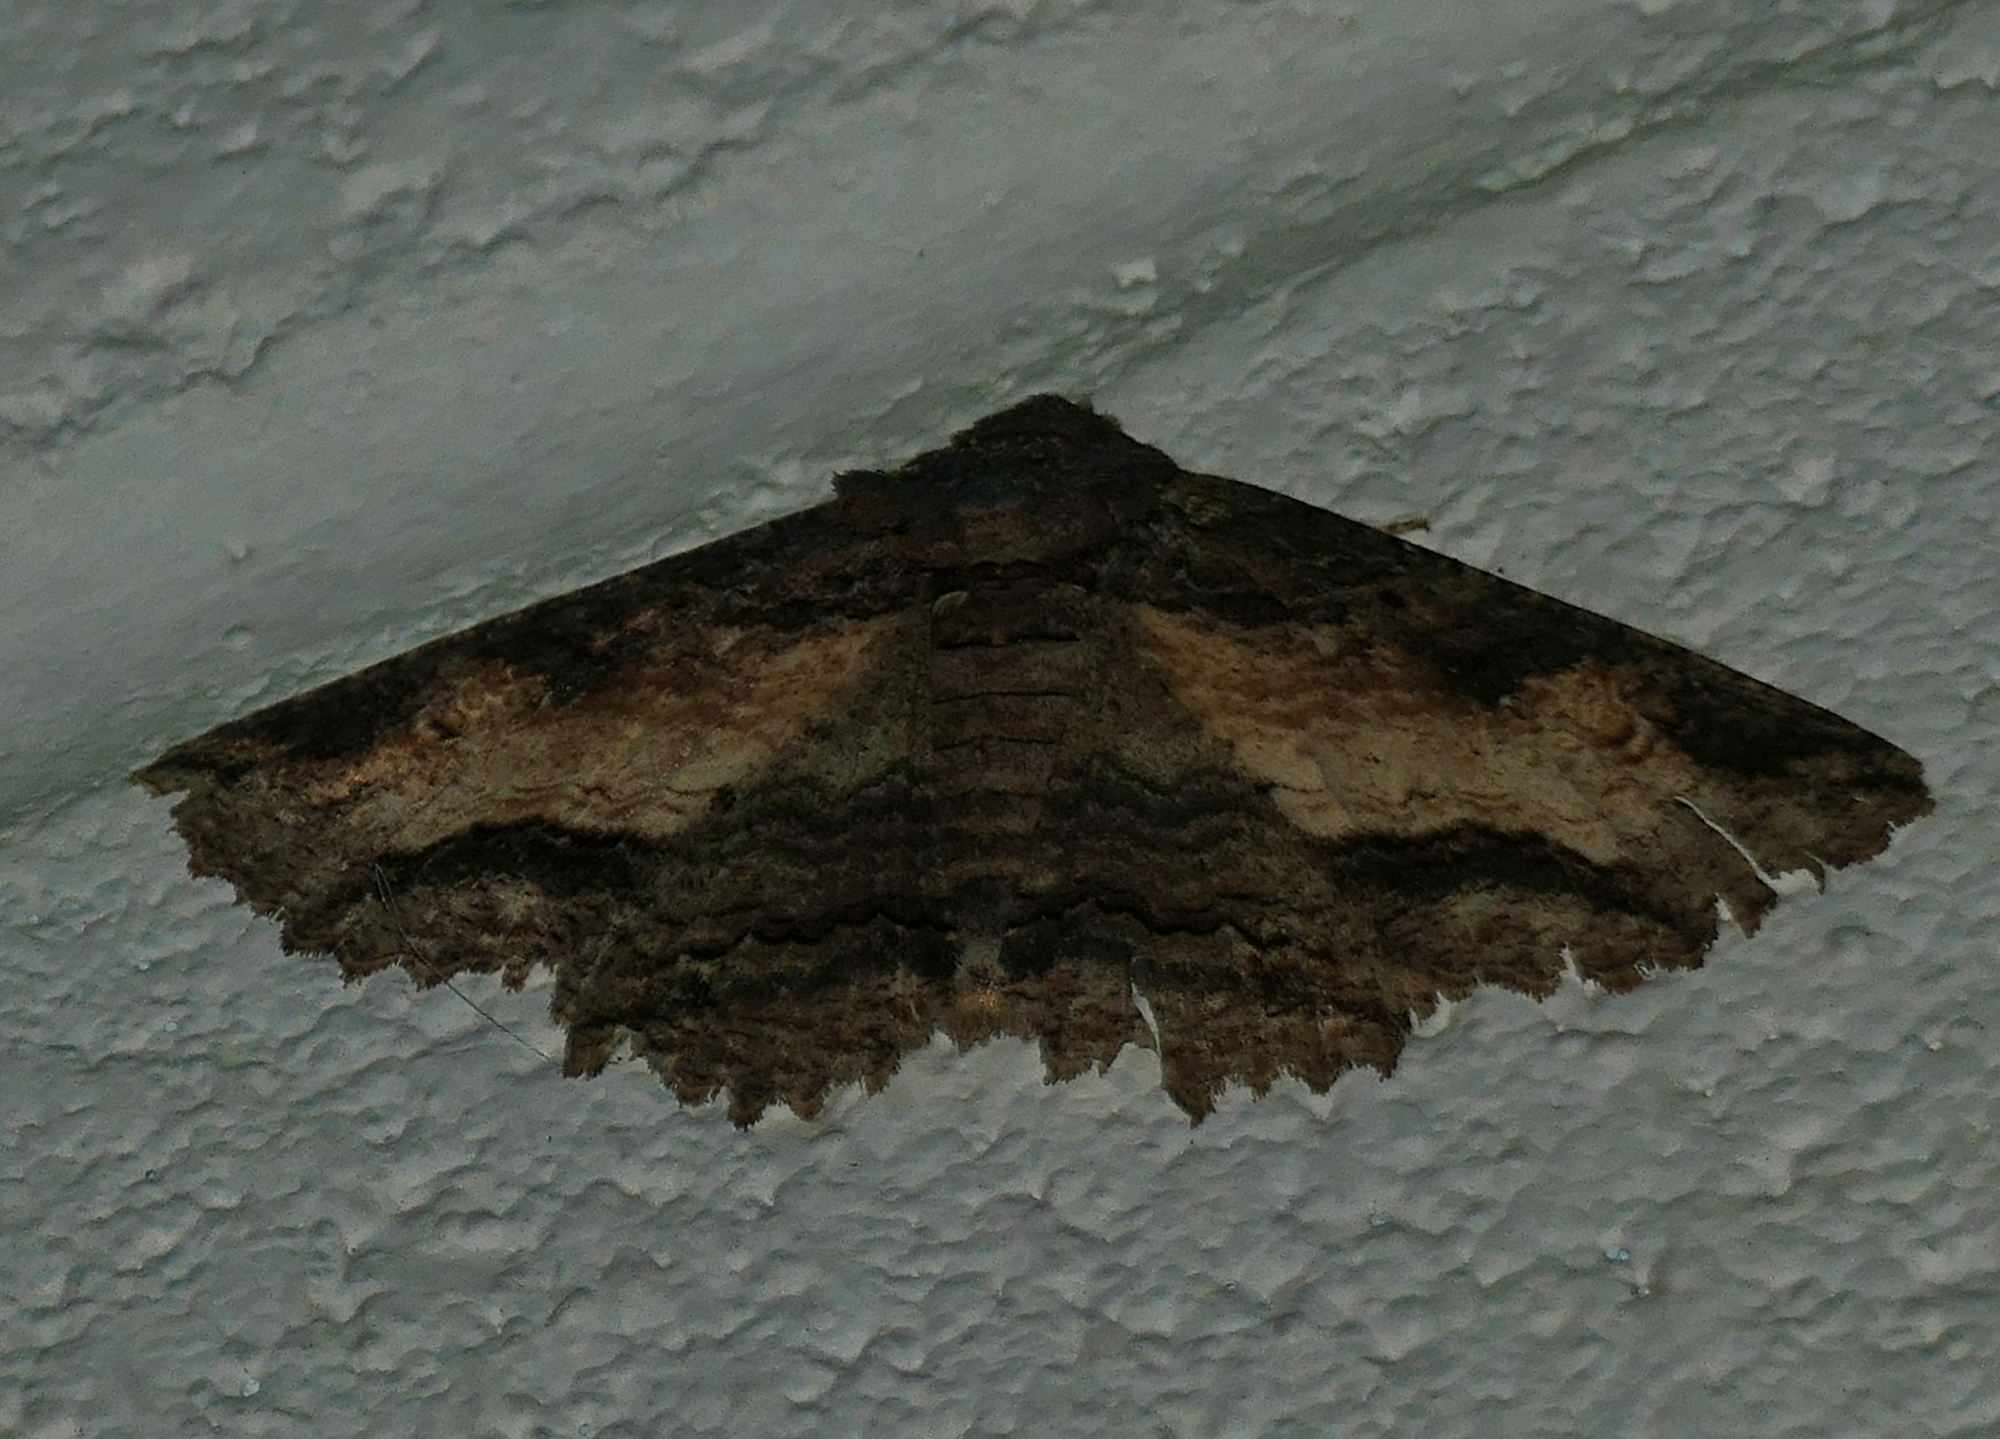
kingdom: Animalia
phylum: Arthropoda
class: Insecta
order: Lepidoptera
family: Erebidae
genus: Zale
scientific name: Zale lunata
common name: Lunate zale moth
